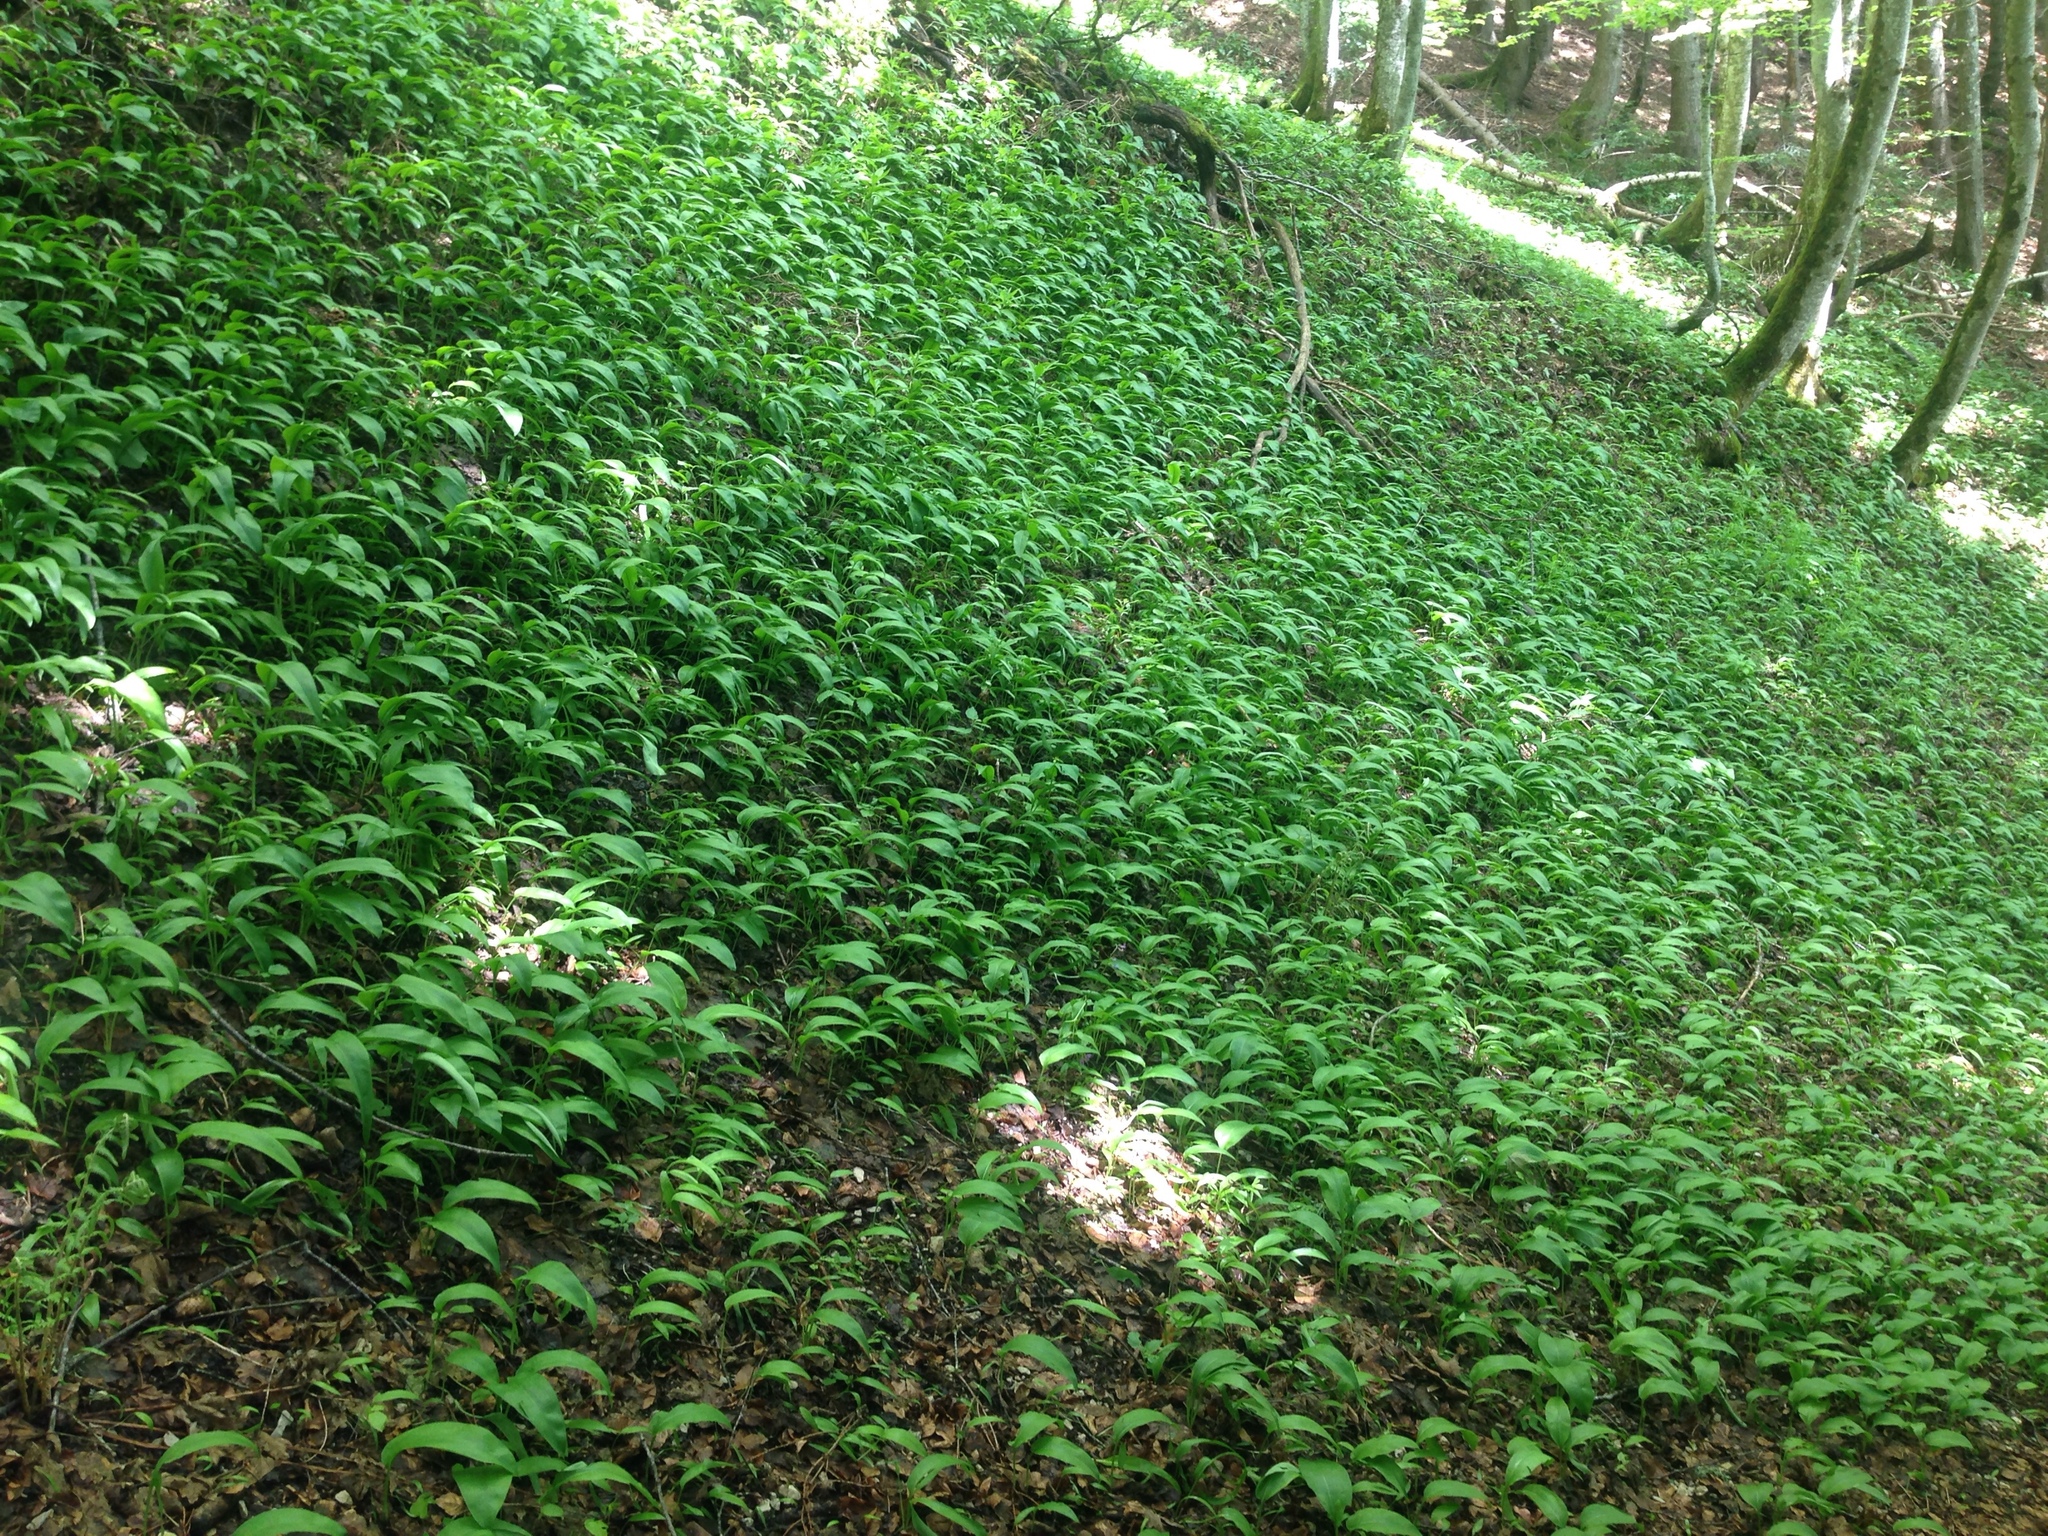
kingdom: Plantae
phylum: Tracheophyta
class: Liliopsida
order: Asparagales
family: Amaryllidaceae
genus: Allium
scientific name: Allium ursinum
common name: Ramsons
